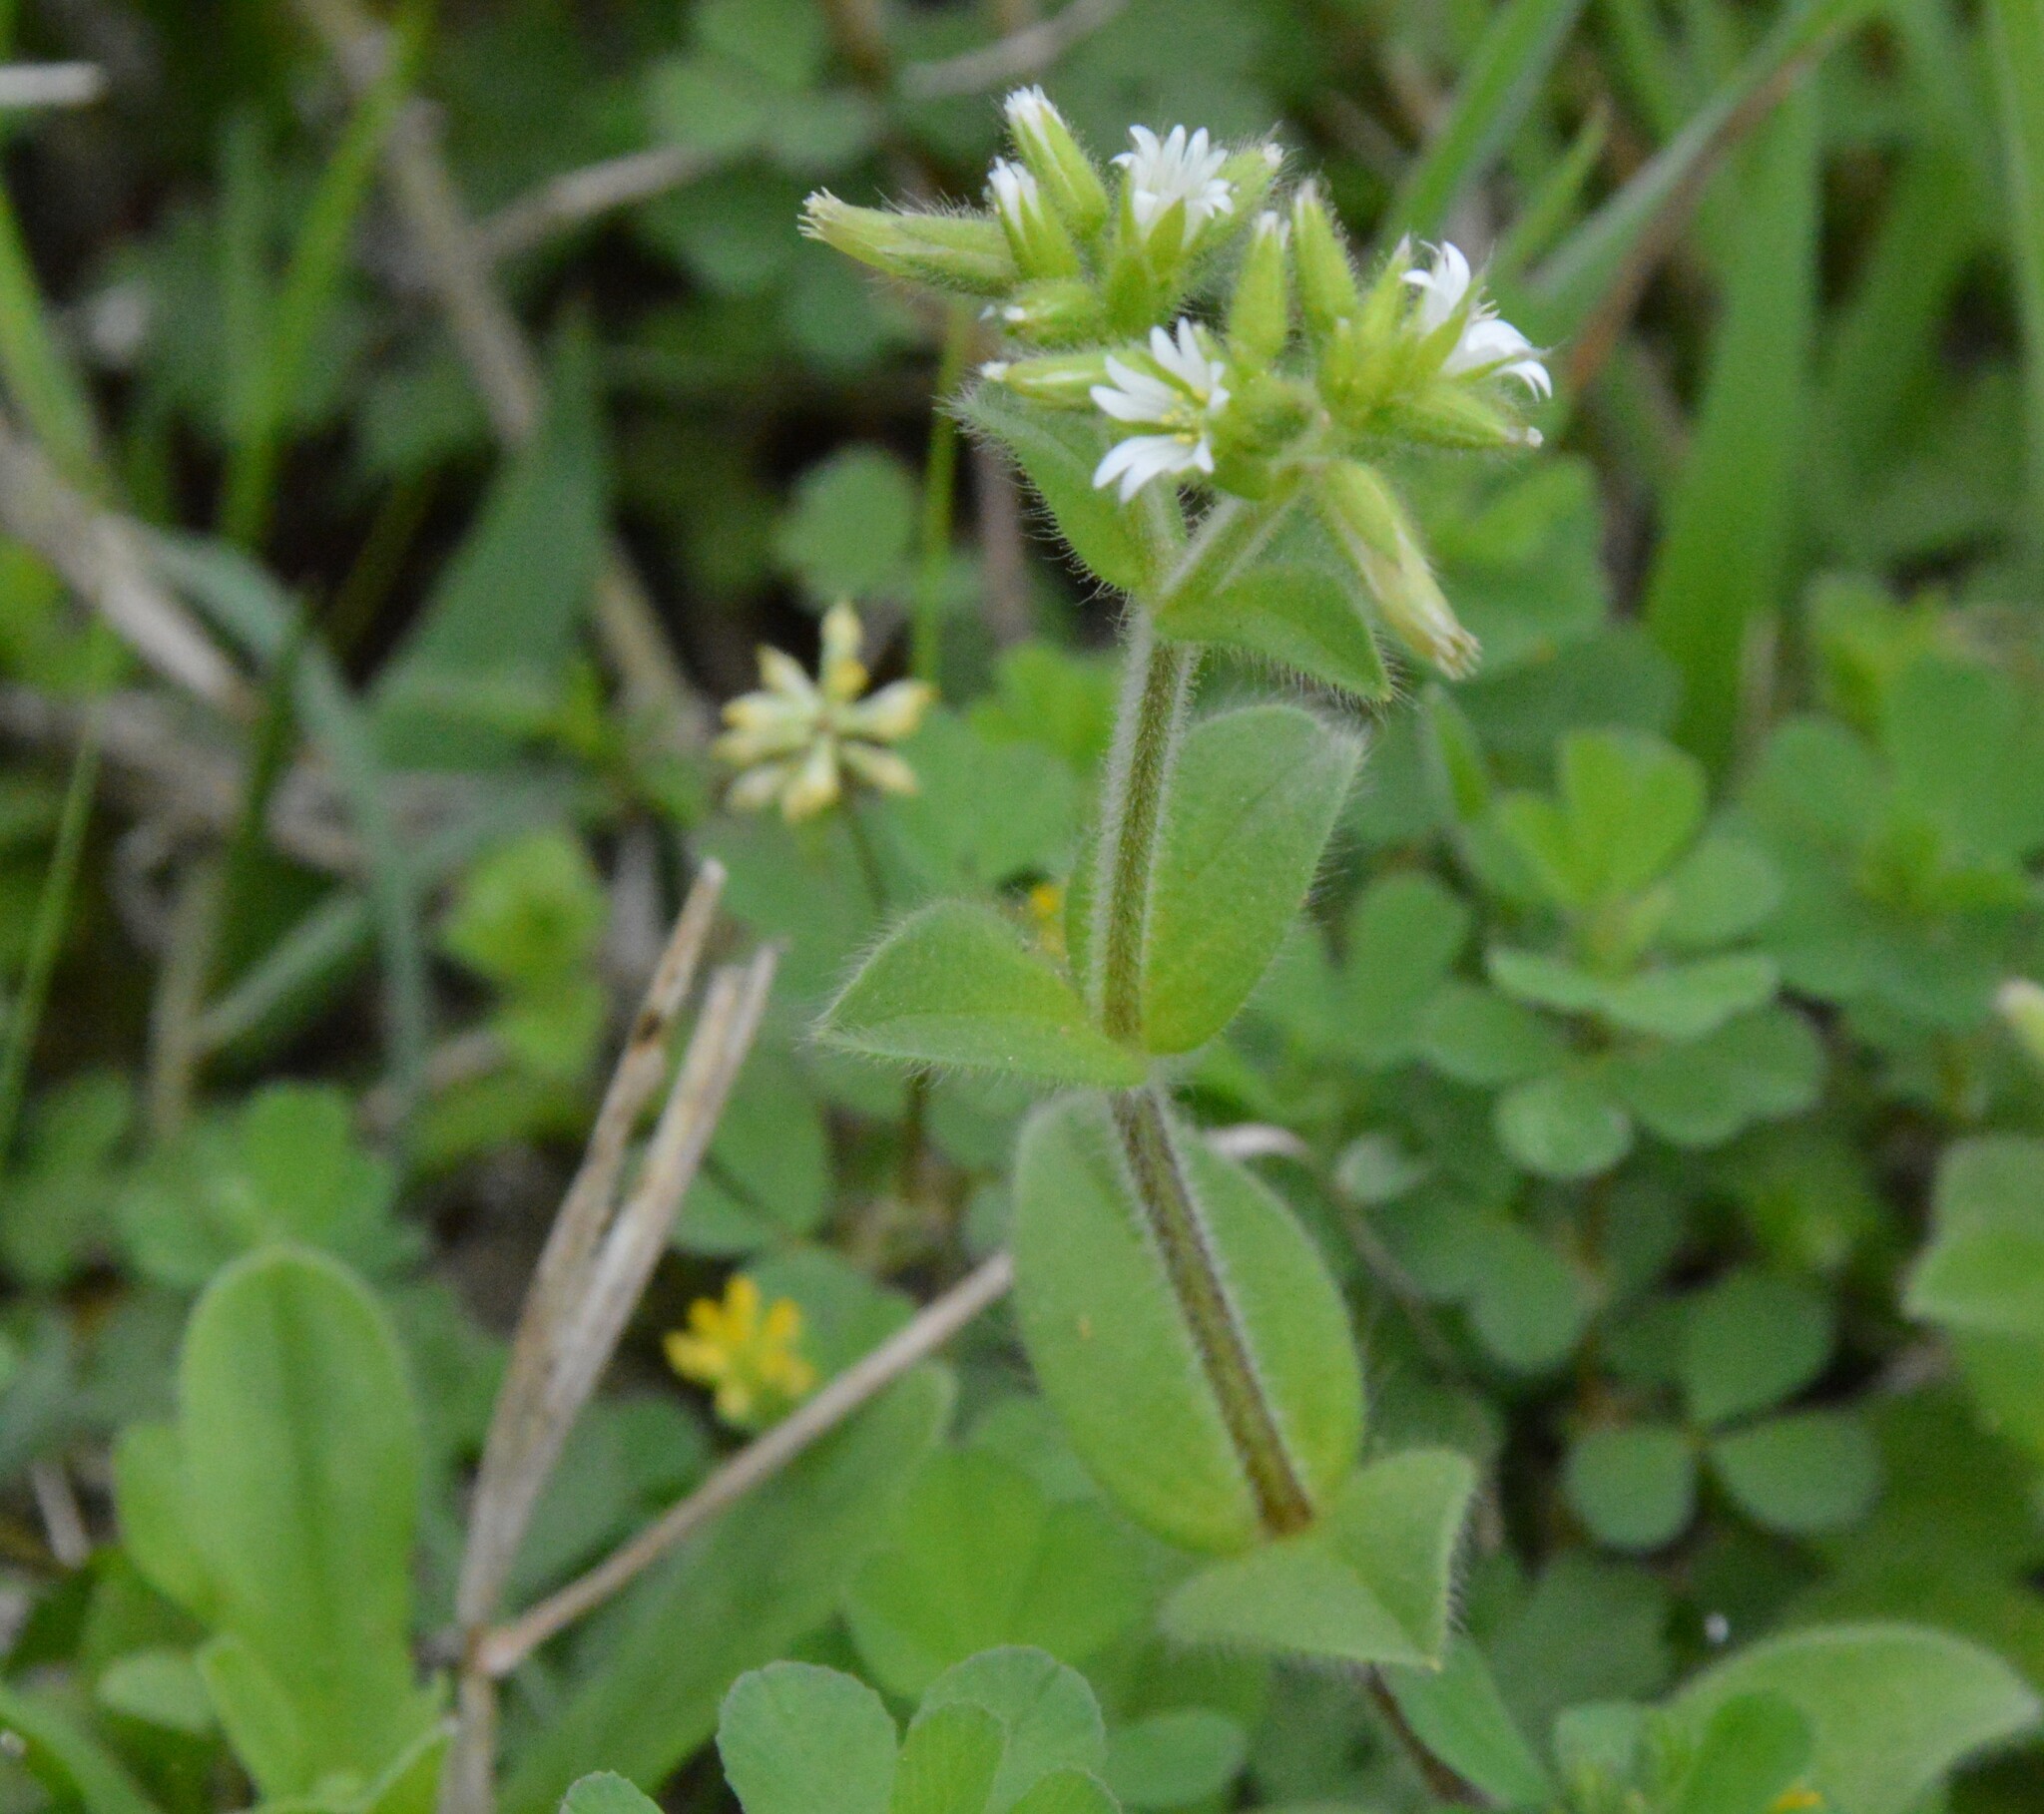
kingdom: Plantae
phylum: Tracheophyta
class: Magnoliopsida
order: Caryophyllales
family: Caryophyllaceae
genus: Cerastium
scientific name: Cerastium glomeratum
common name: Sticky chickweed
